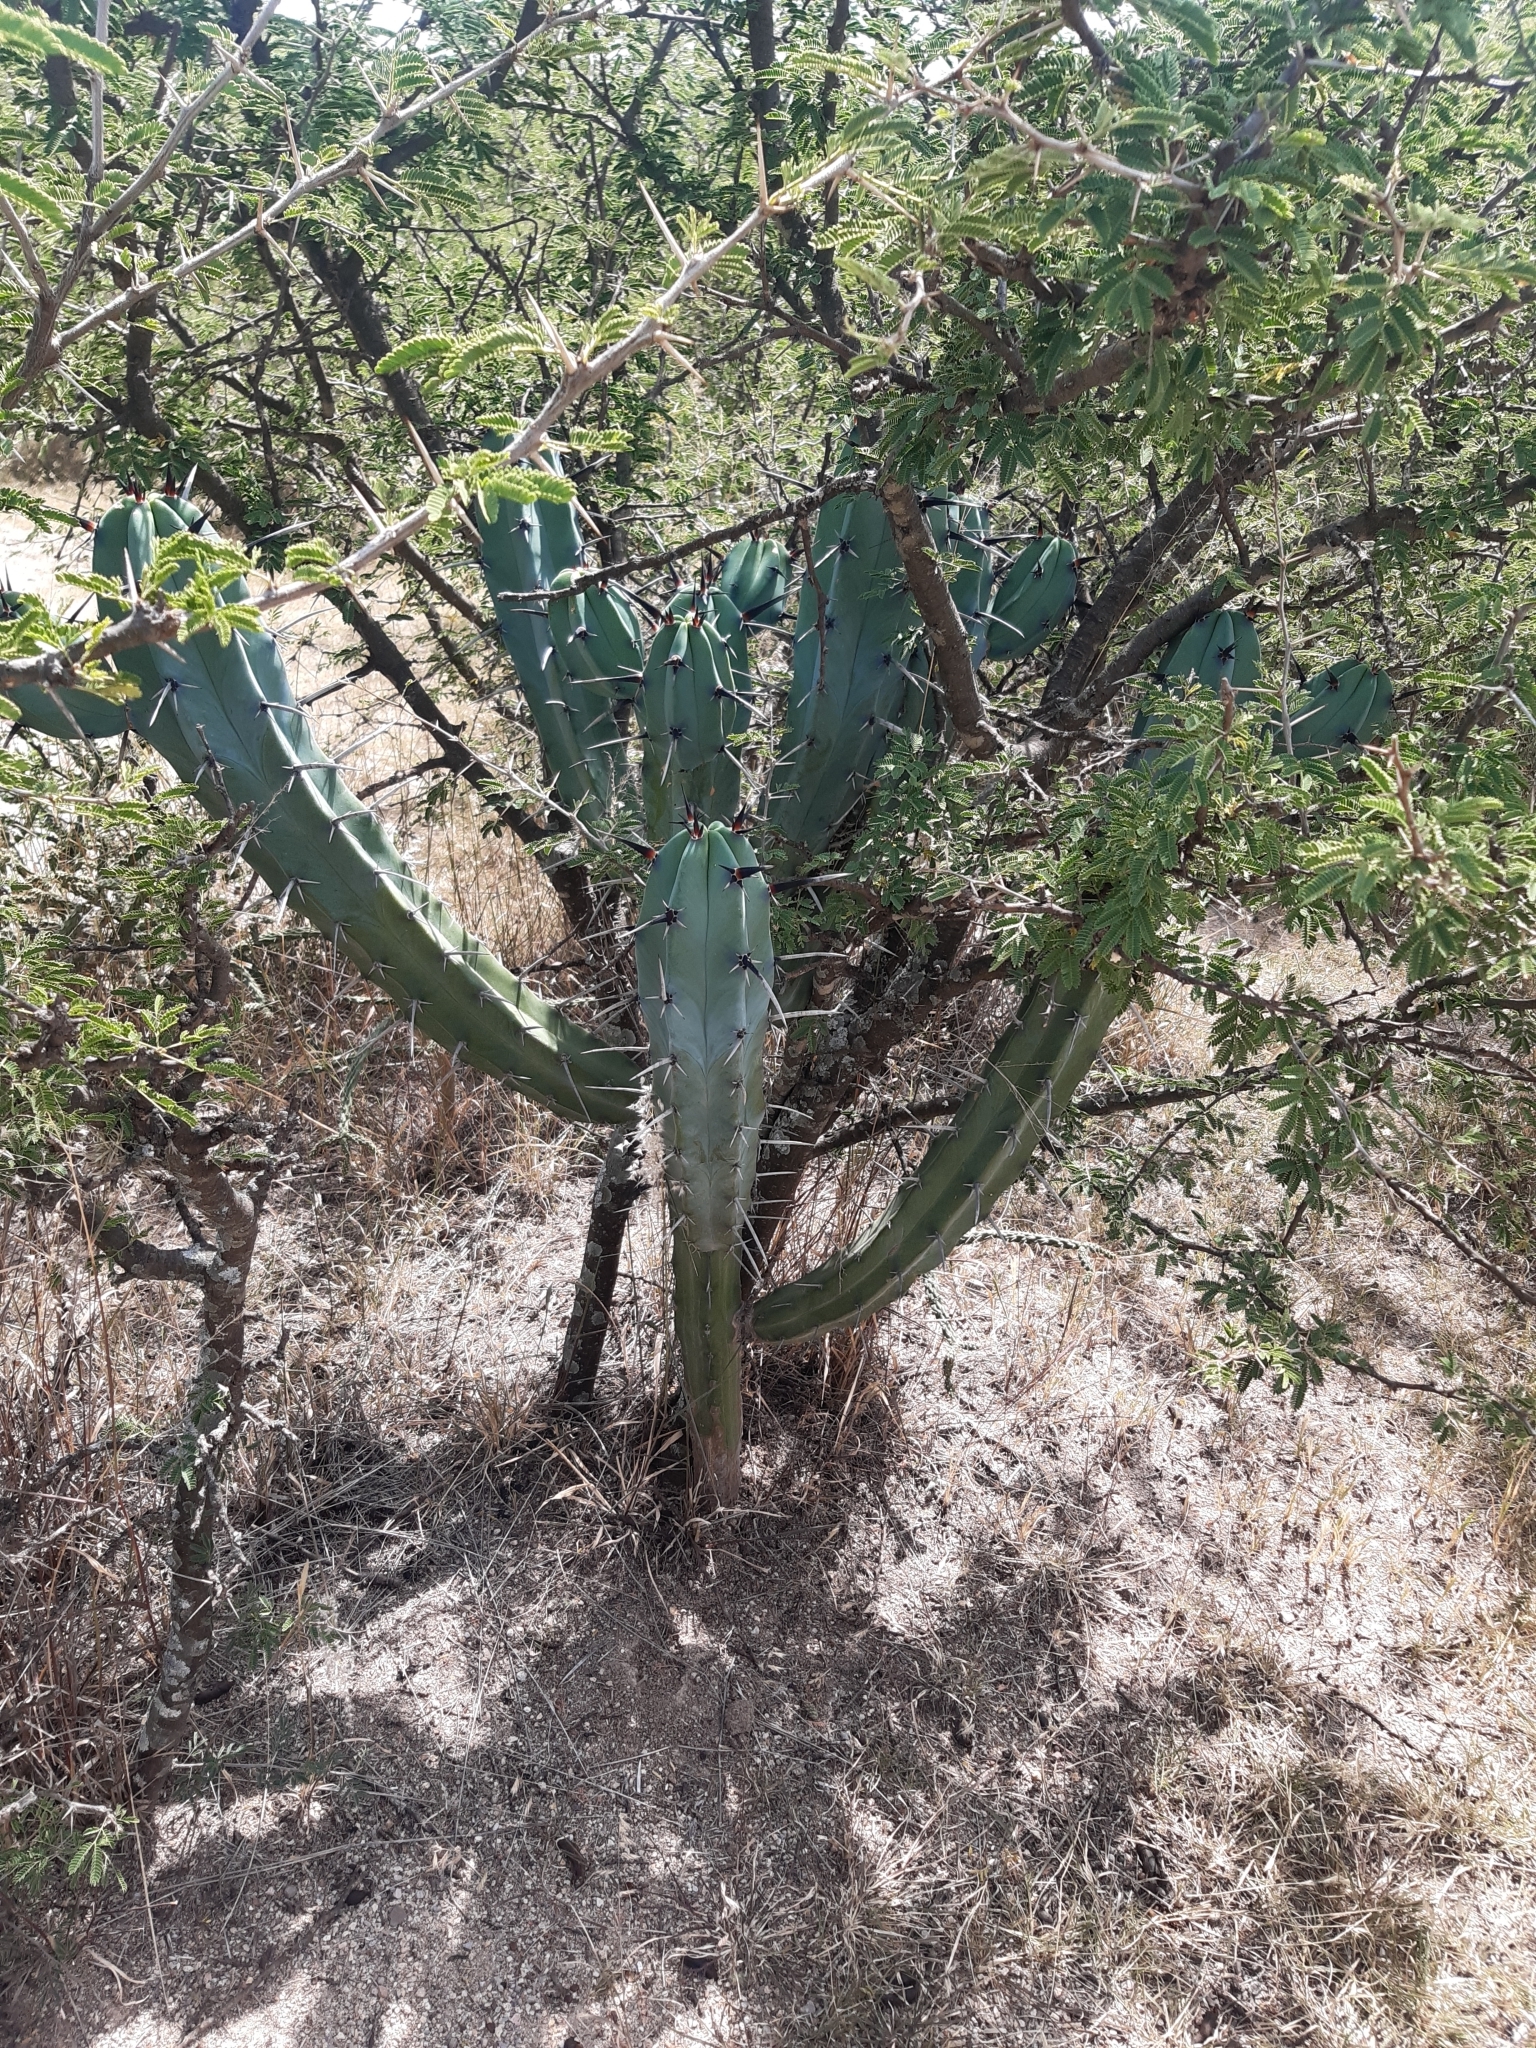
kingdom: Plantae
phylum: Tracheophyta
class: Magnoliopsida
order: Caryophyllales
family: Cactaceae
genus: Myrtillocactus
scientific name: Myrtillocactus geometrizans
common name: Bilberry cactus
